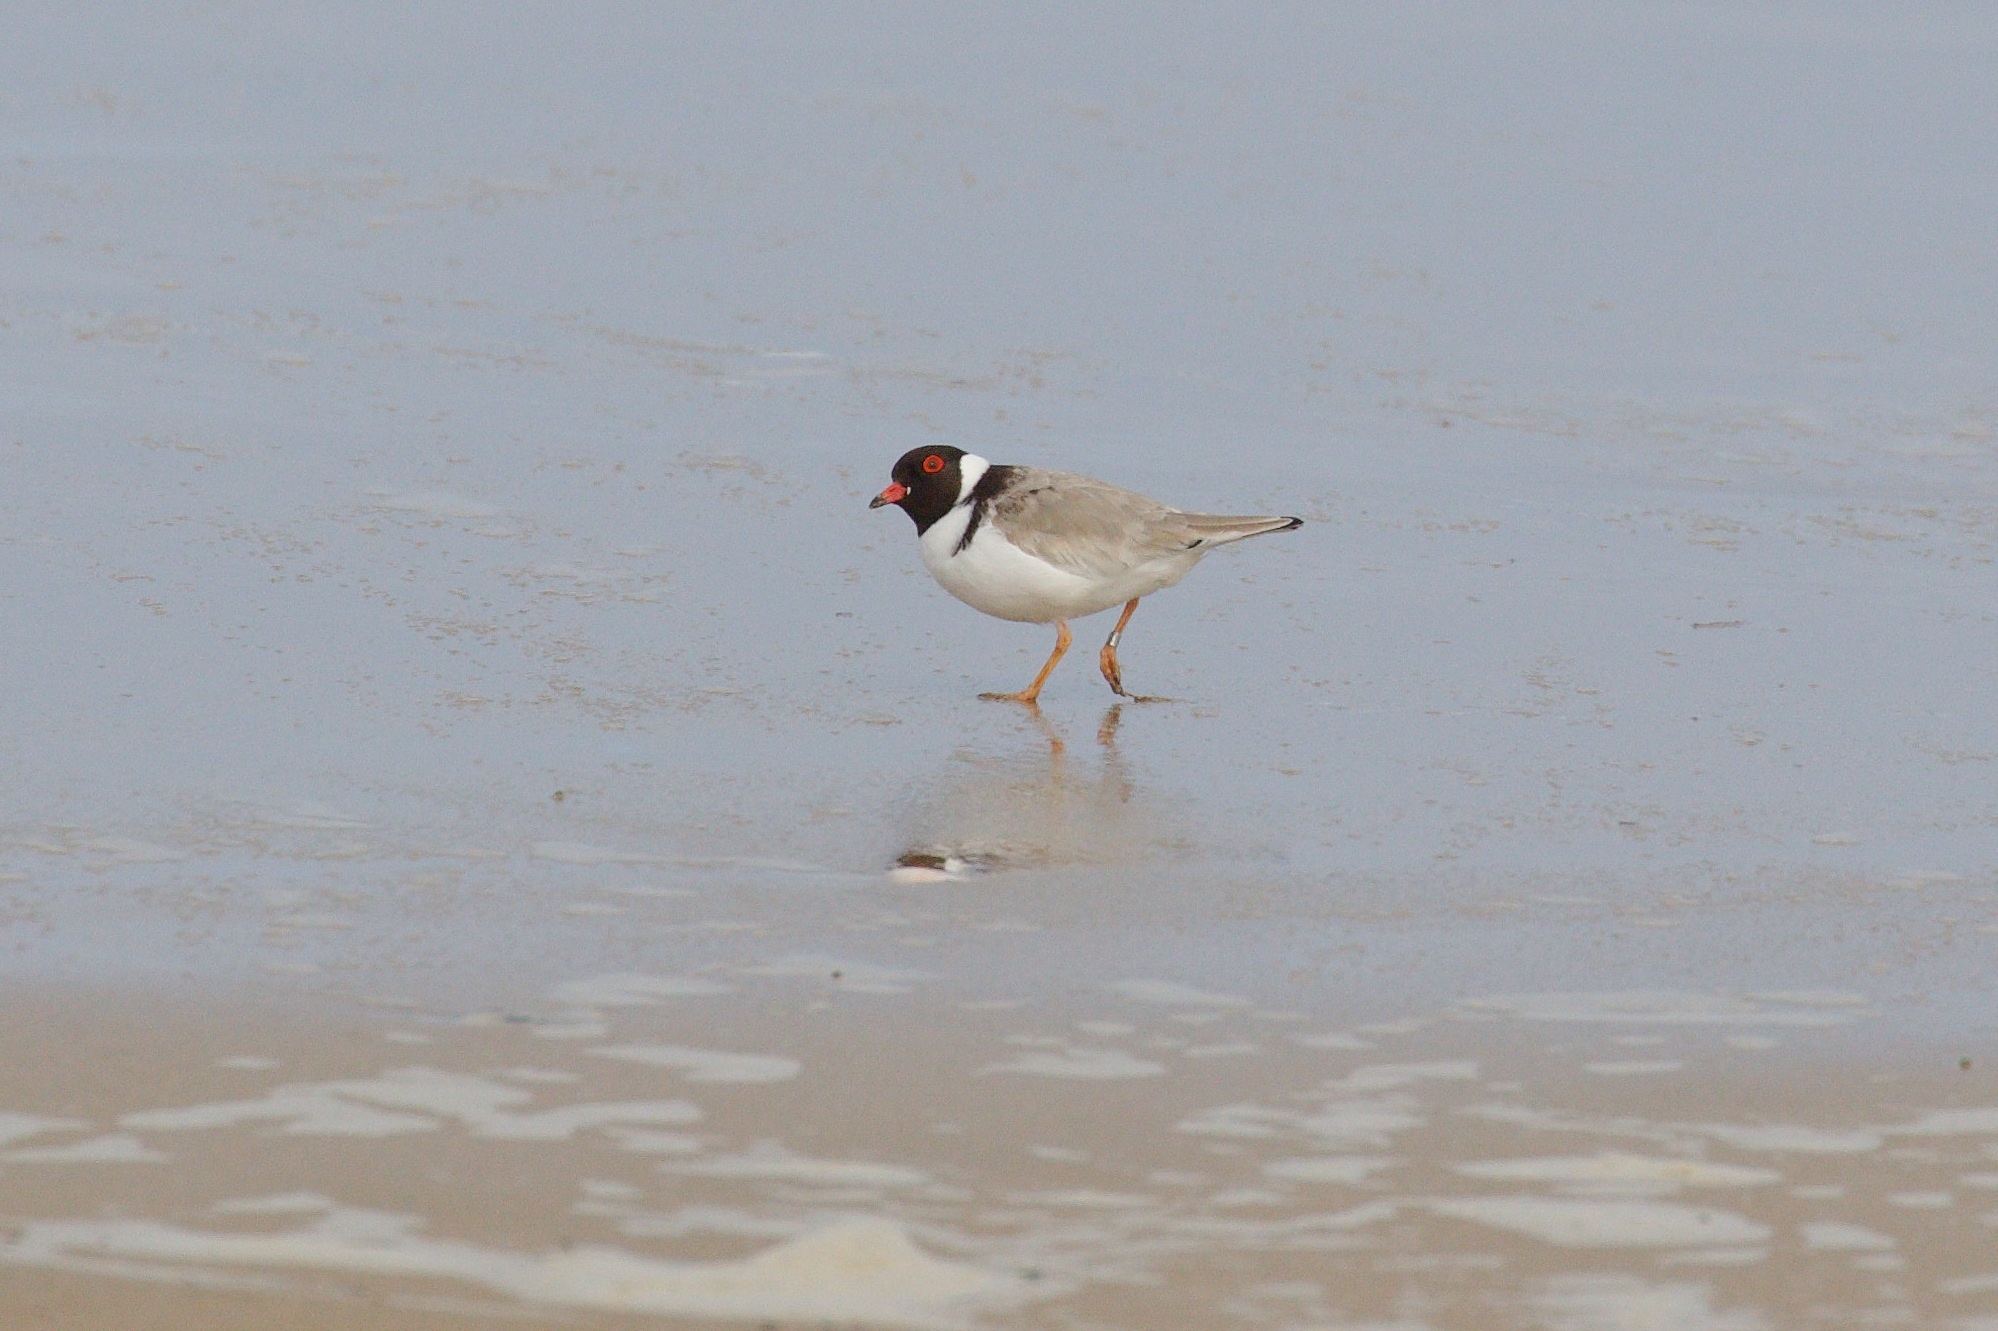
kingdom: Animalia
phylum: Chordata
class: Aves
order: Charadriiformes
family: Charadriidae
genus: Thinornis
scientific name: Thinornis cucullatus
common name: Hooded dotterel
